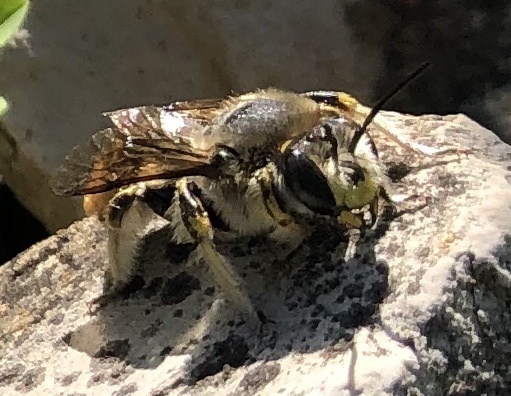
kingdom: Animalia
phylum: Arthropoda
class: Insecta
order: Hymenoptera
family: Megachilidae
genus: Anthidium
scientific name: Anthidium manicatum
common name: Wool carder bee
